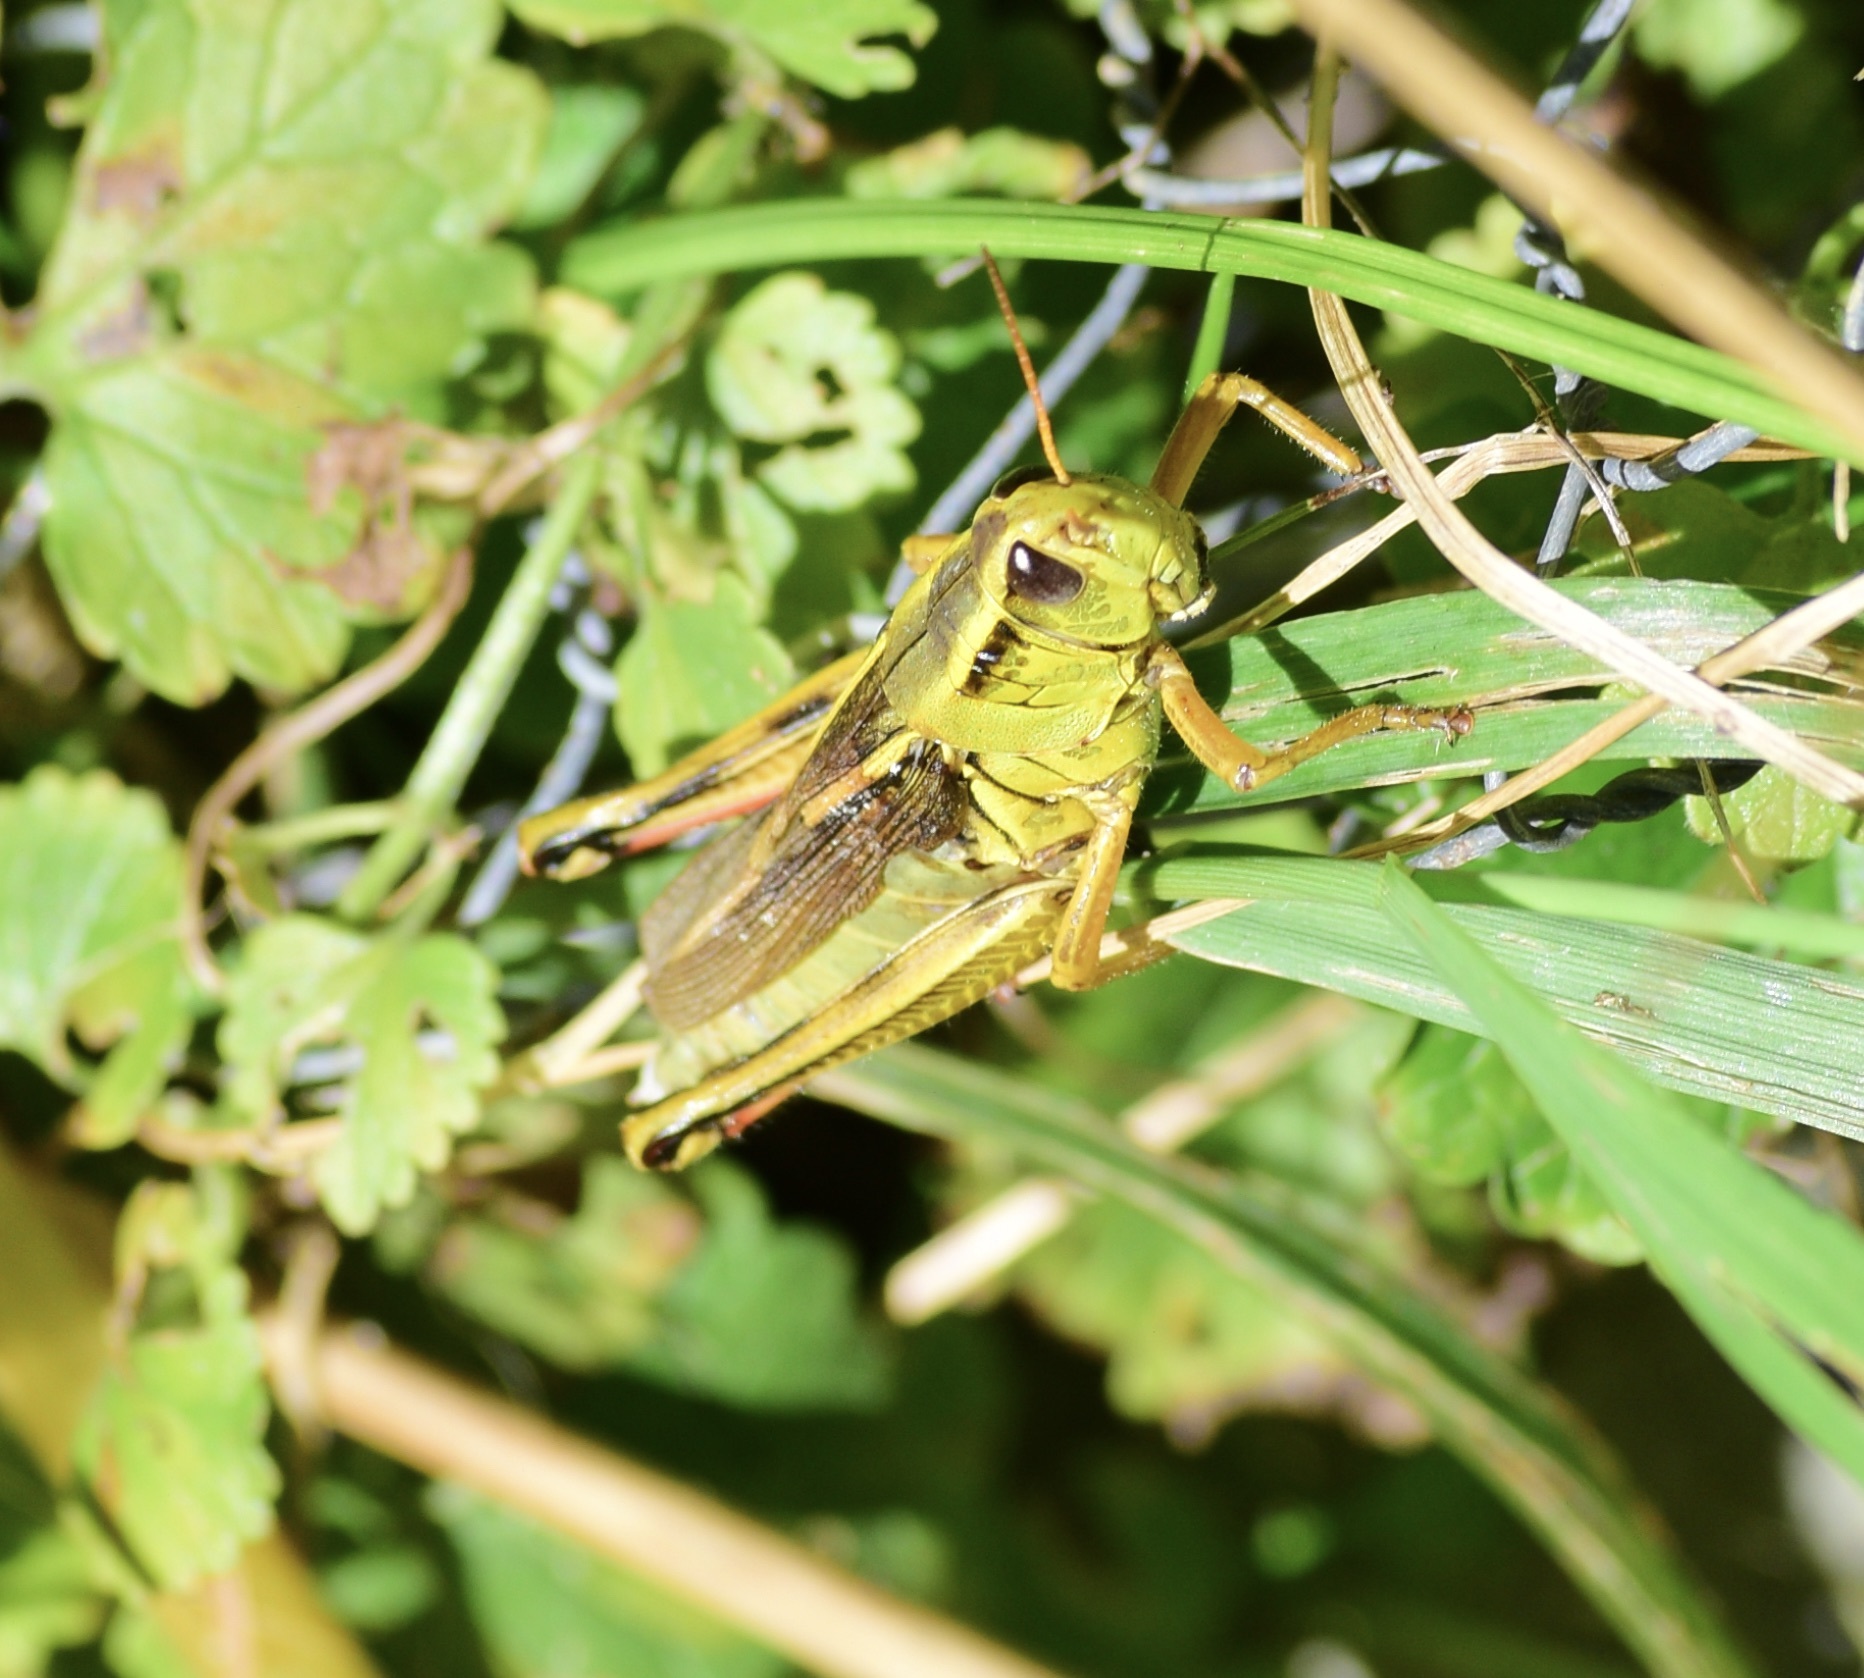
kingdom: Animalia
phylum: Arthropoda
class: Insecta
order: Orthoptera
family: Acrididae
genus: Melanoplus
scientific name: Melanoplus bivittatus
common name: Two-striped grasshopper
